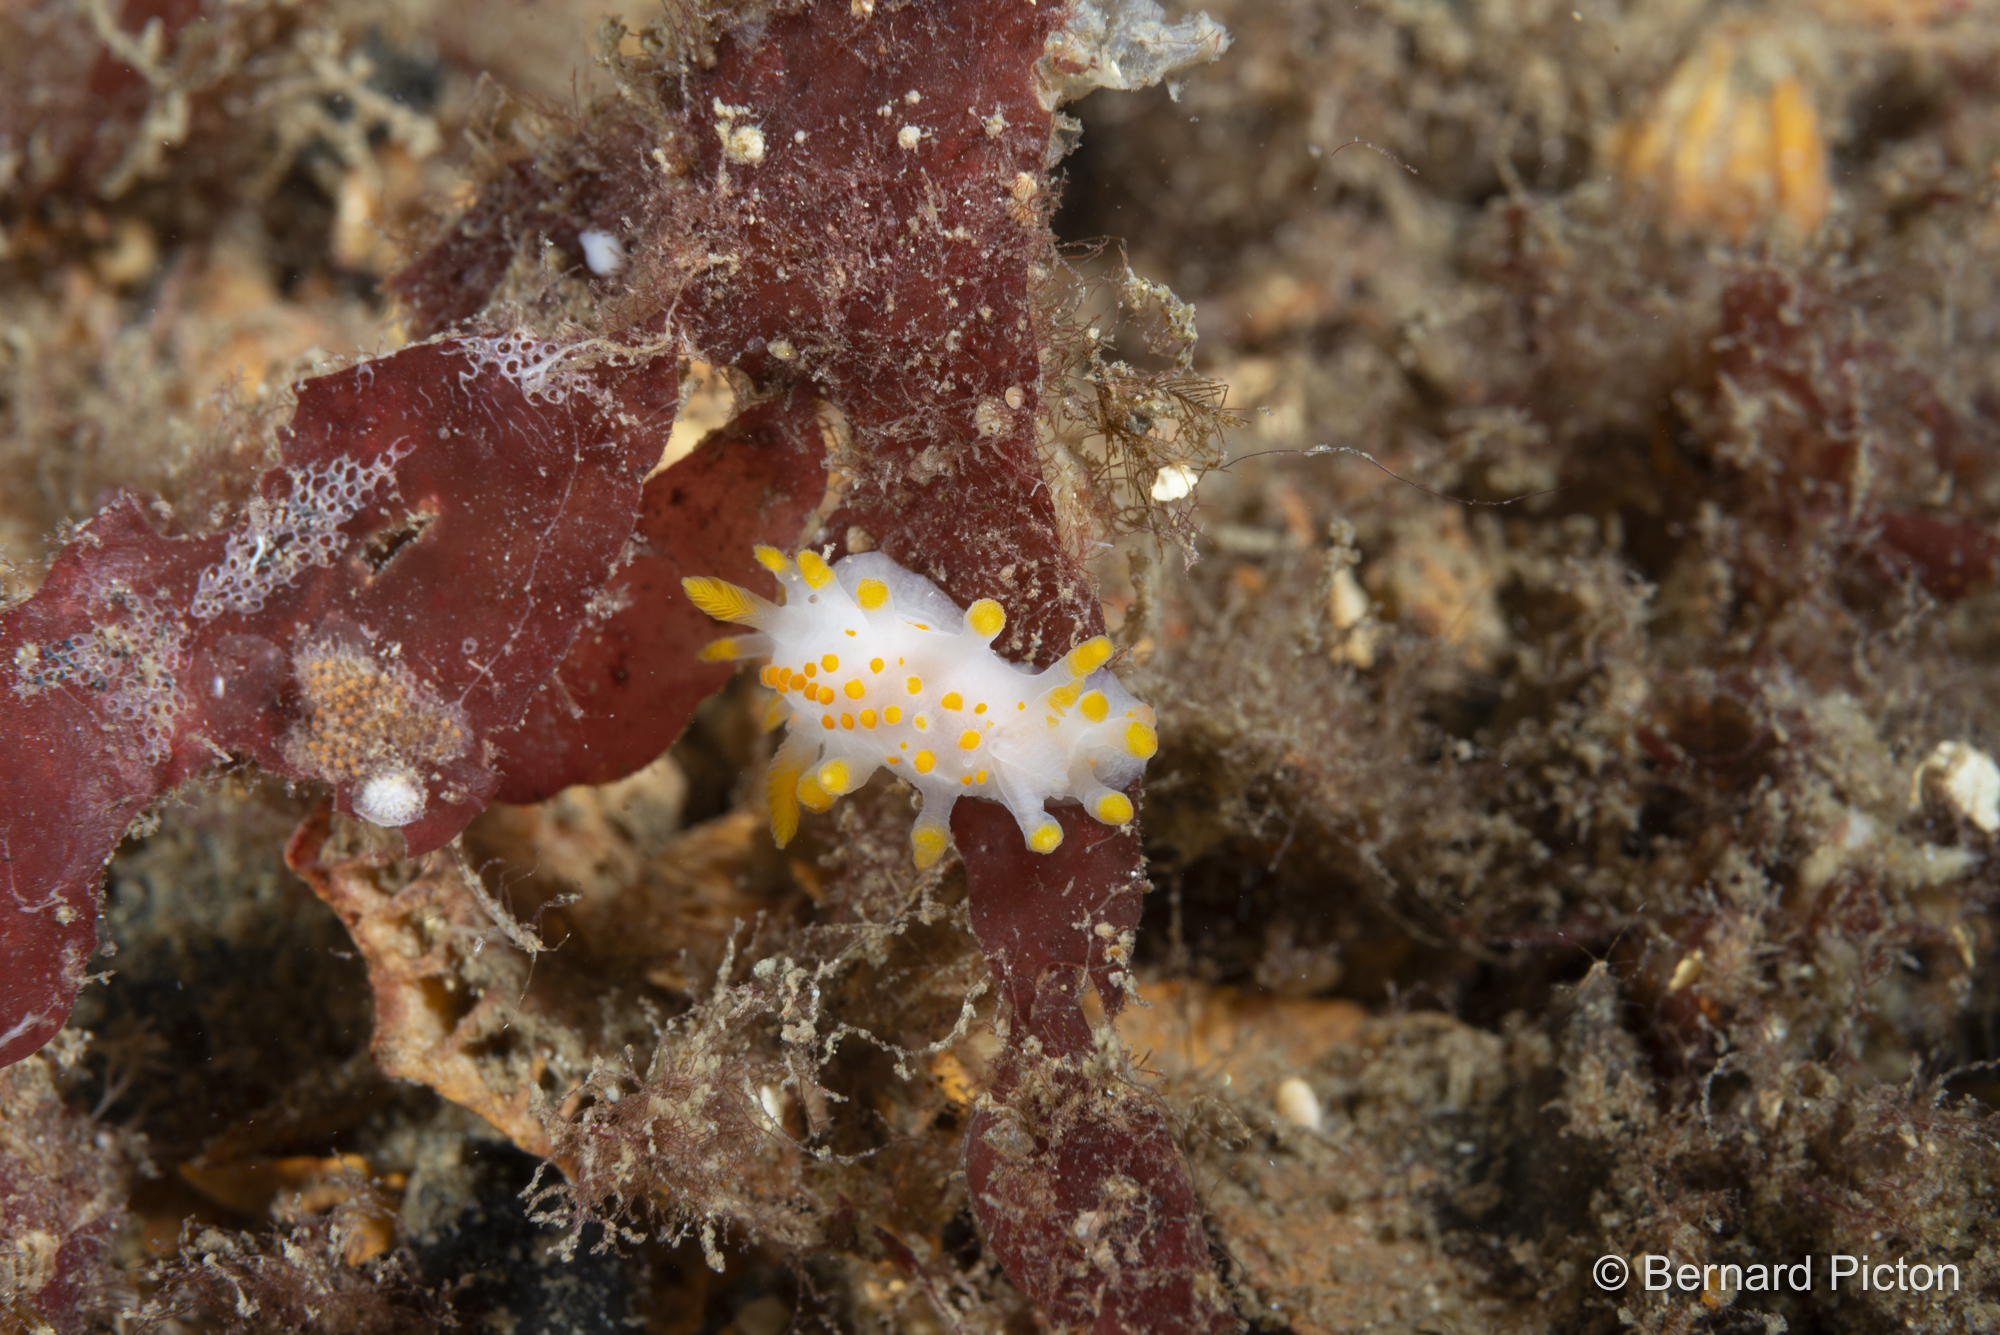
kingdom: Animalia
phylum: Mollusca
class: Gastropoda
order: Nudibranchia
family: Polyceridae
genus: Limacia
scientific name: Limacia clavigera
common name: Orange-clubbed sea slug
